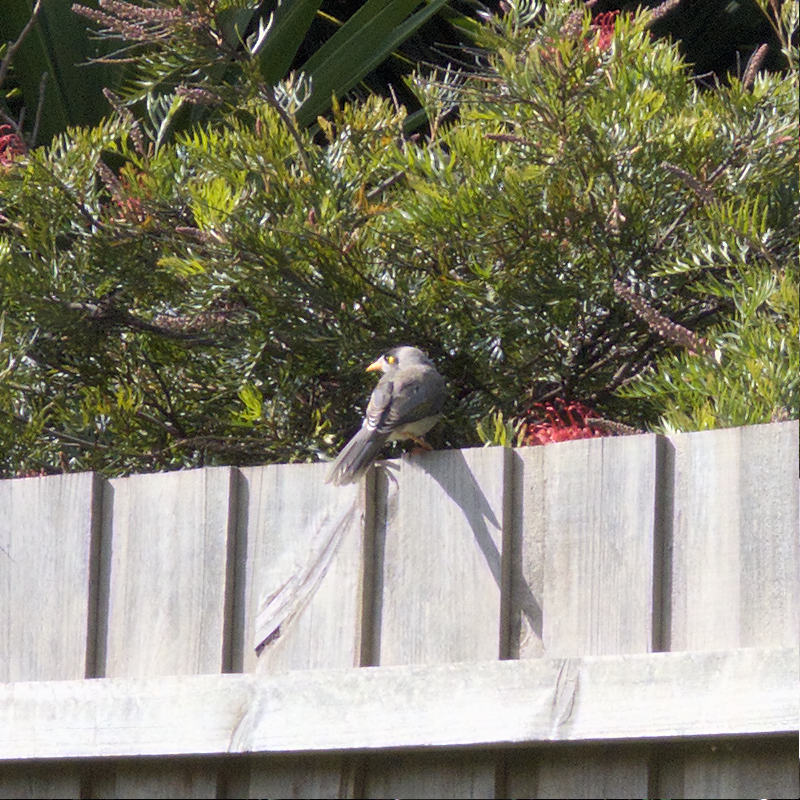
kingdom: Animalia
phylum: Chordata
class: Aves
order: Passeriformes
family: Meliphagidae
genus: Manorina
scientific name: Manorina melanocephala
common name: Noisy miner
